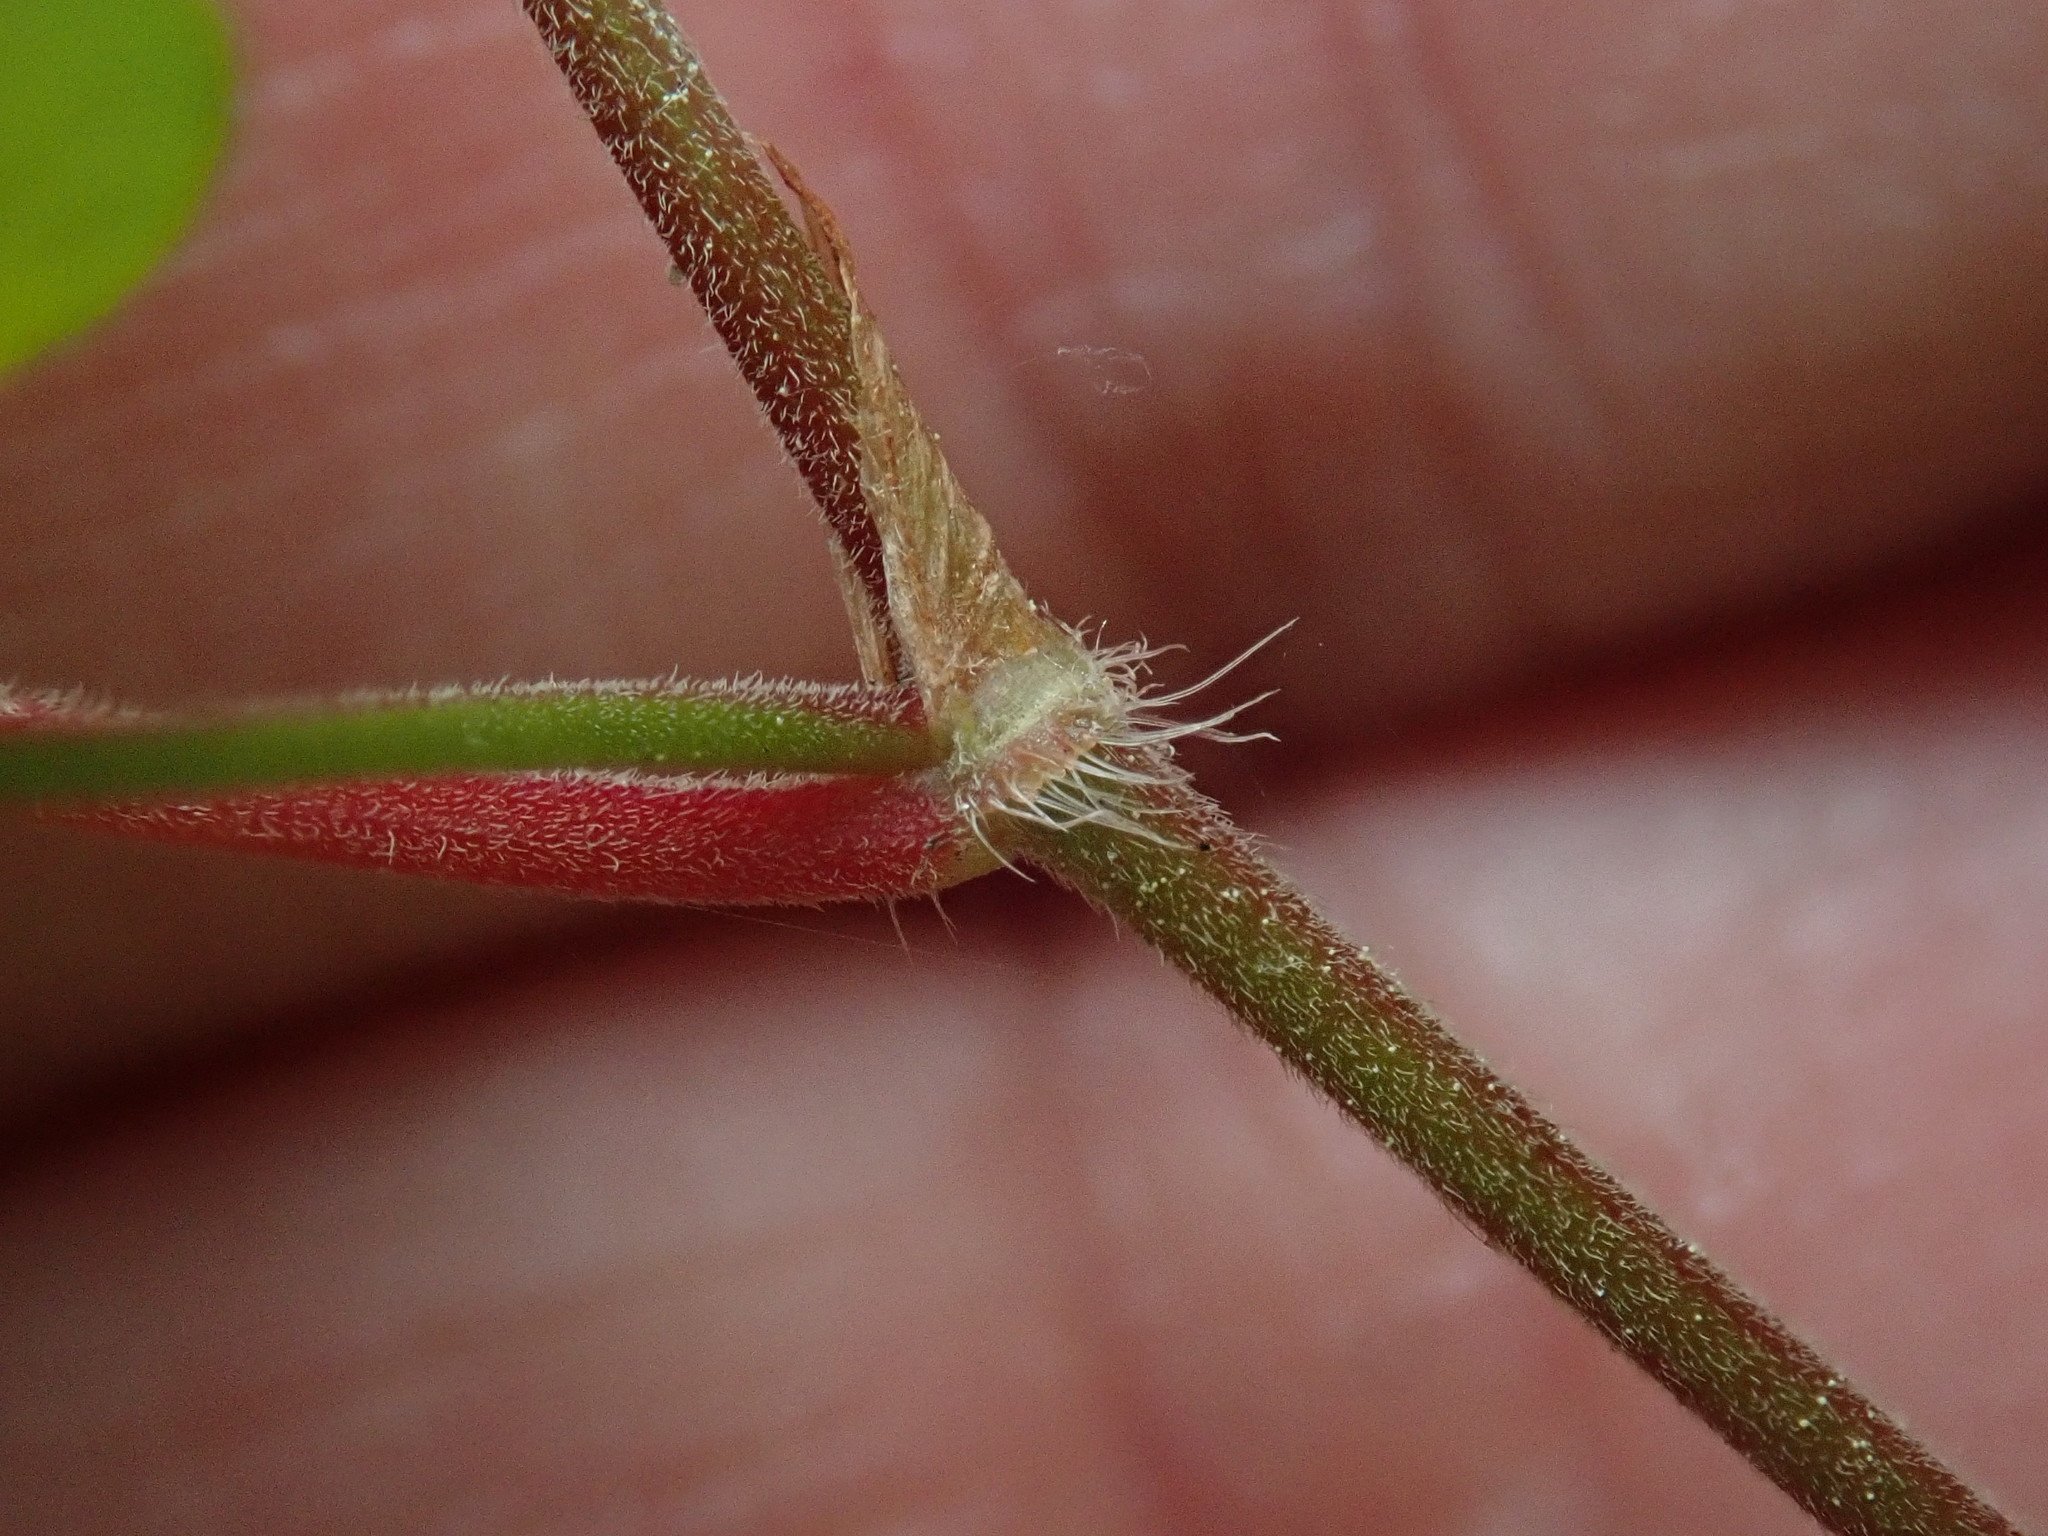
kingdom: Plantae
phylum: Tracheophyta
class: Magnoliopsida
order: Caryophyllales
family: Polygonaceae
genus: Parogonum
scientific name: Parogonum ciliinode
